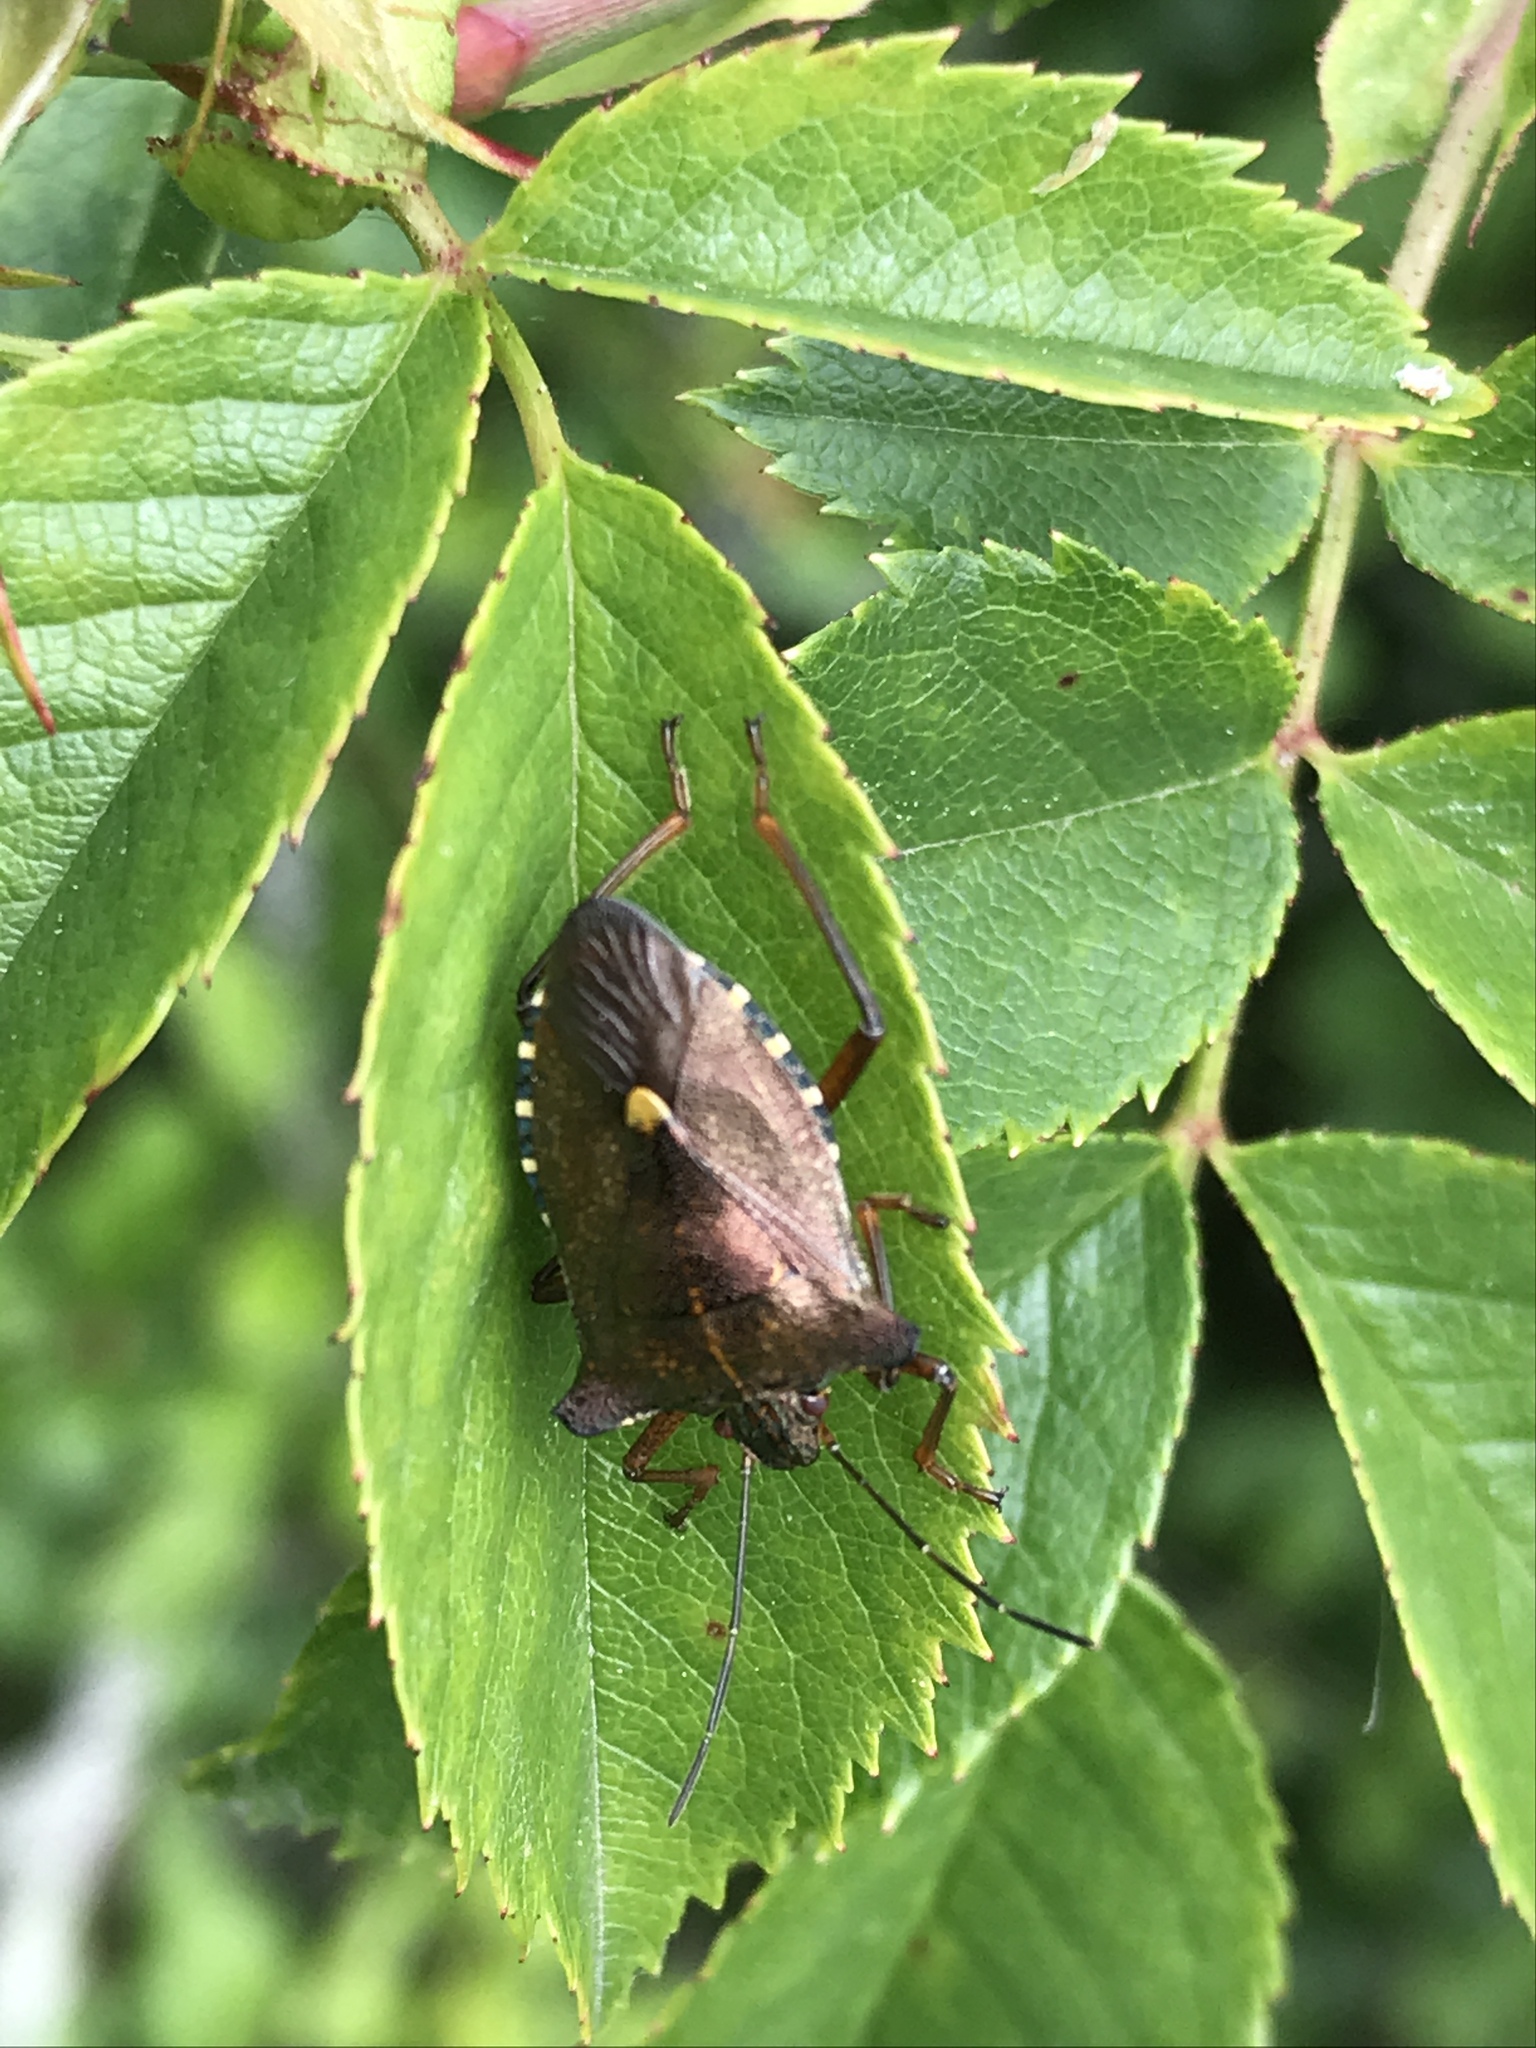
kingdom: Animalia
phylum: Arthropoda
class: Insecta
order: Hemiptera
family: Pentatomidae
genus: Pentatoma
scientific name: Pentatoma rufipes
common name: Forest bug
